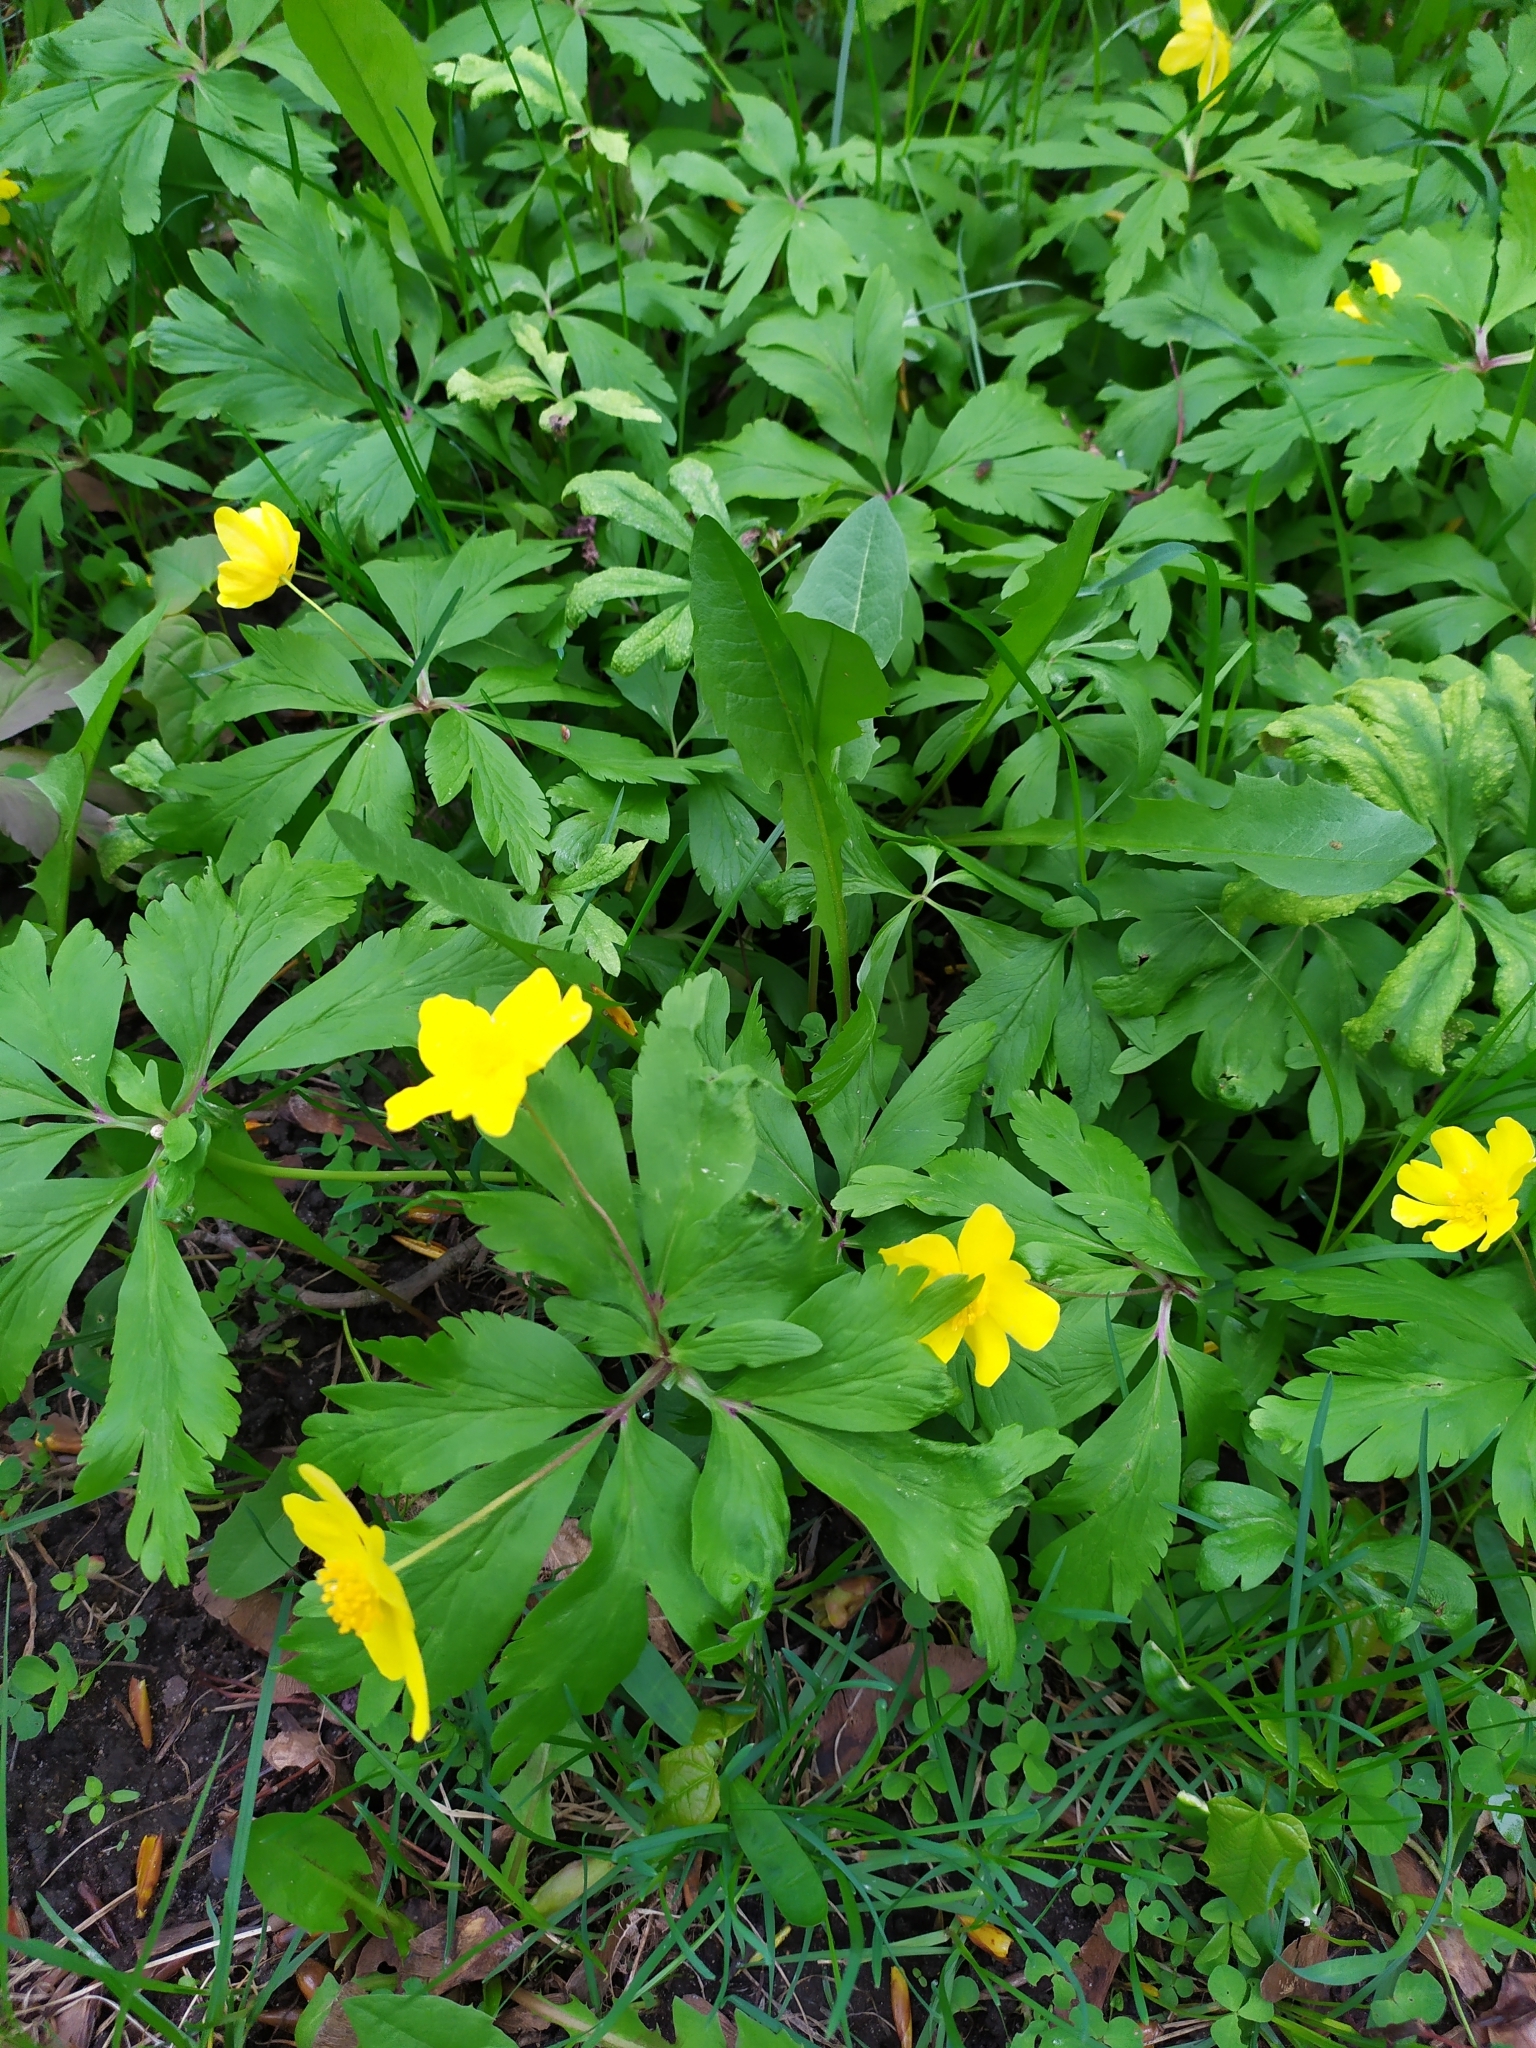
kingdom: Plantae
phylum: Tracheophyta
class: Magnoliopsida
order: Ranunculales
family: Ranunculaceae
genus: Anemone
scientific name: Anemone ranunculoides
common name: Yellow anemone
